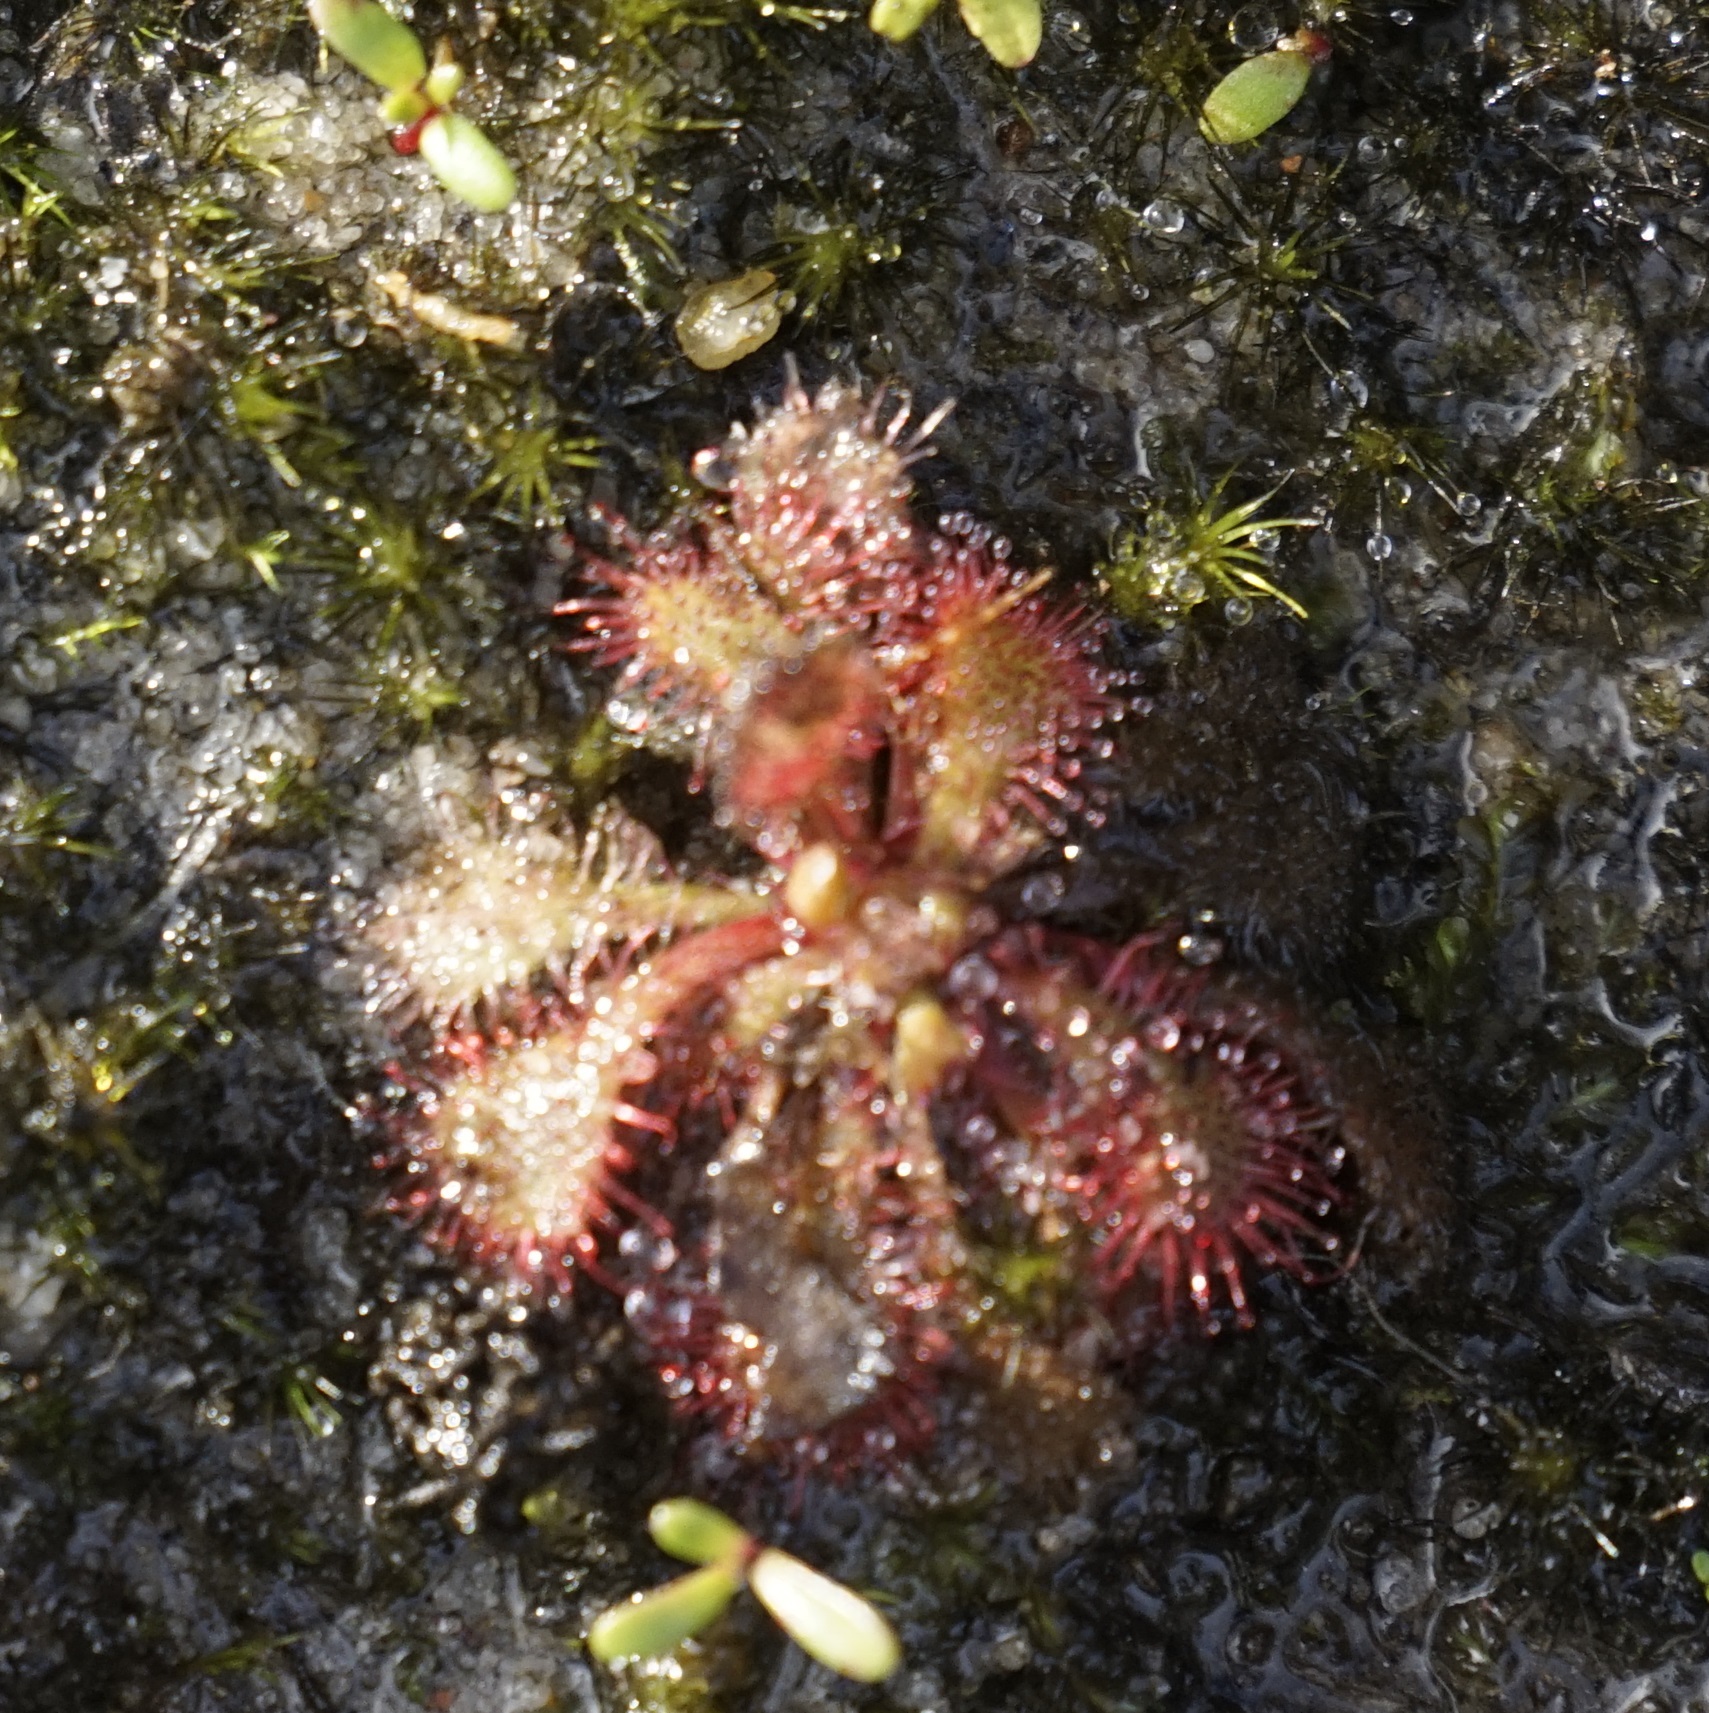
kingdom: Plantae
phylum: Tracheophyta
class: Magnoliopsida
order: Caryophyllales
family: Droseraceae
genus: Drosera
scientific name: Drosera spatulata
